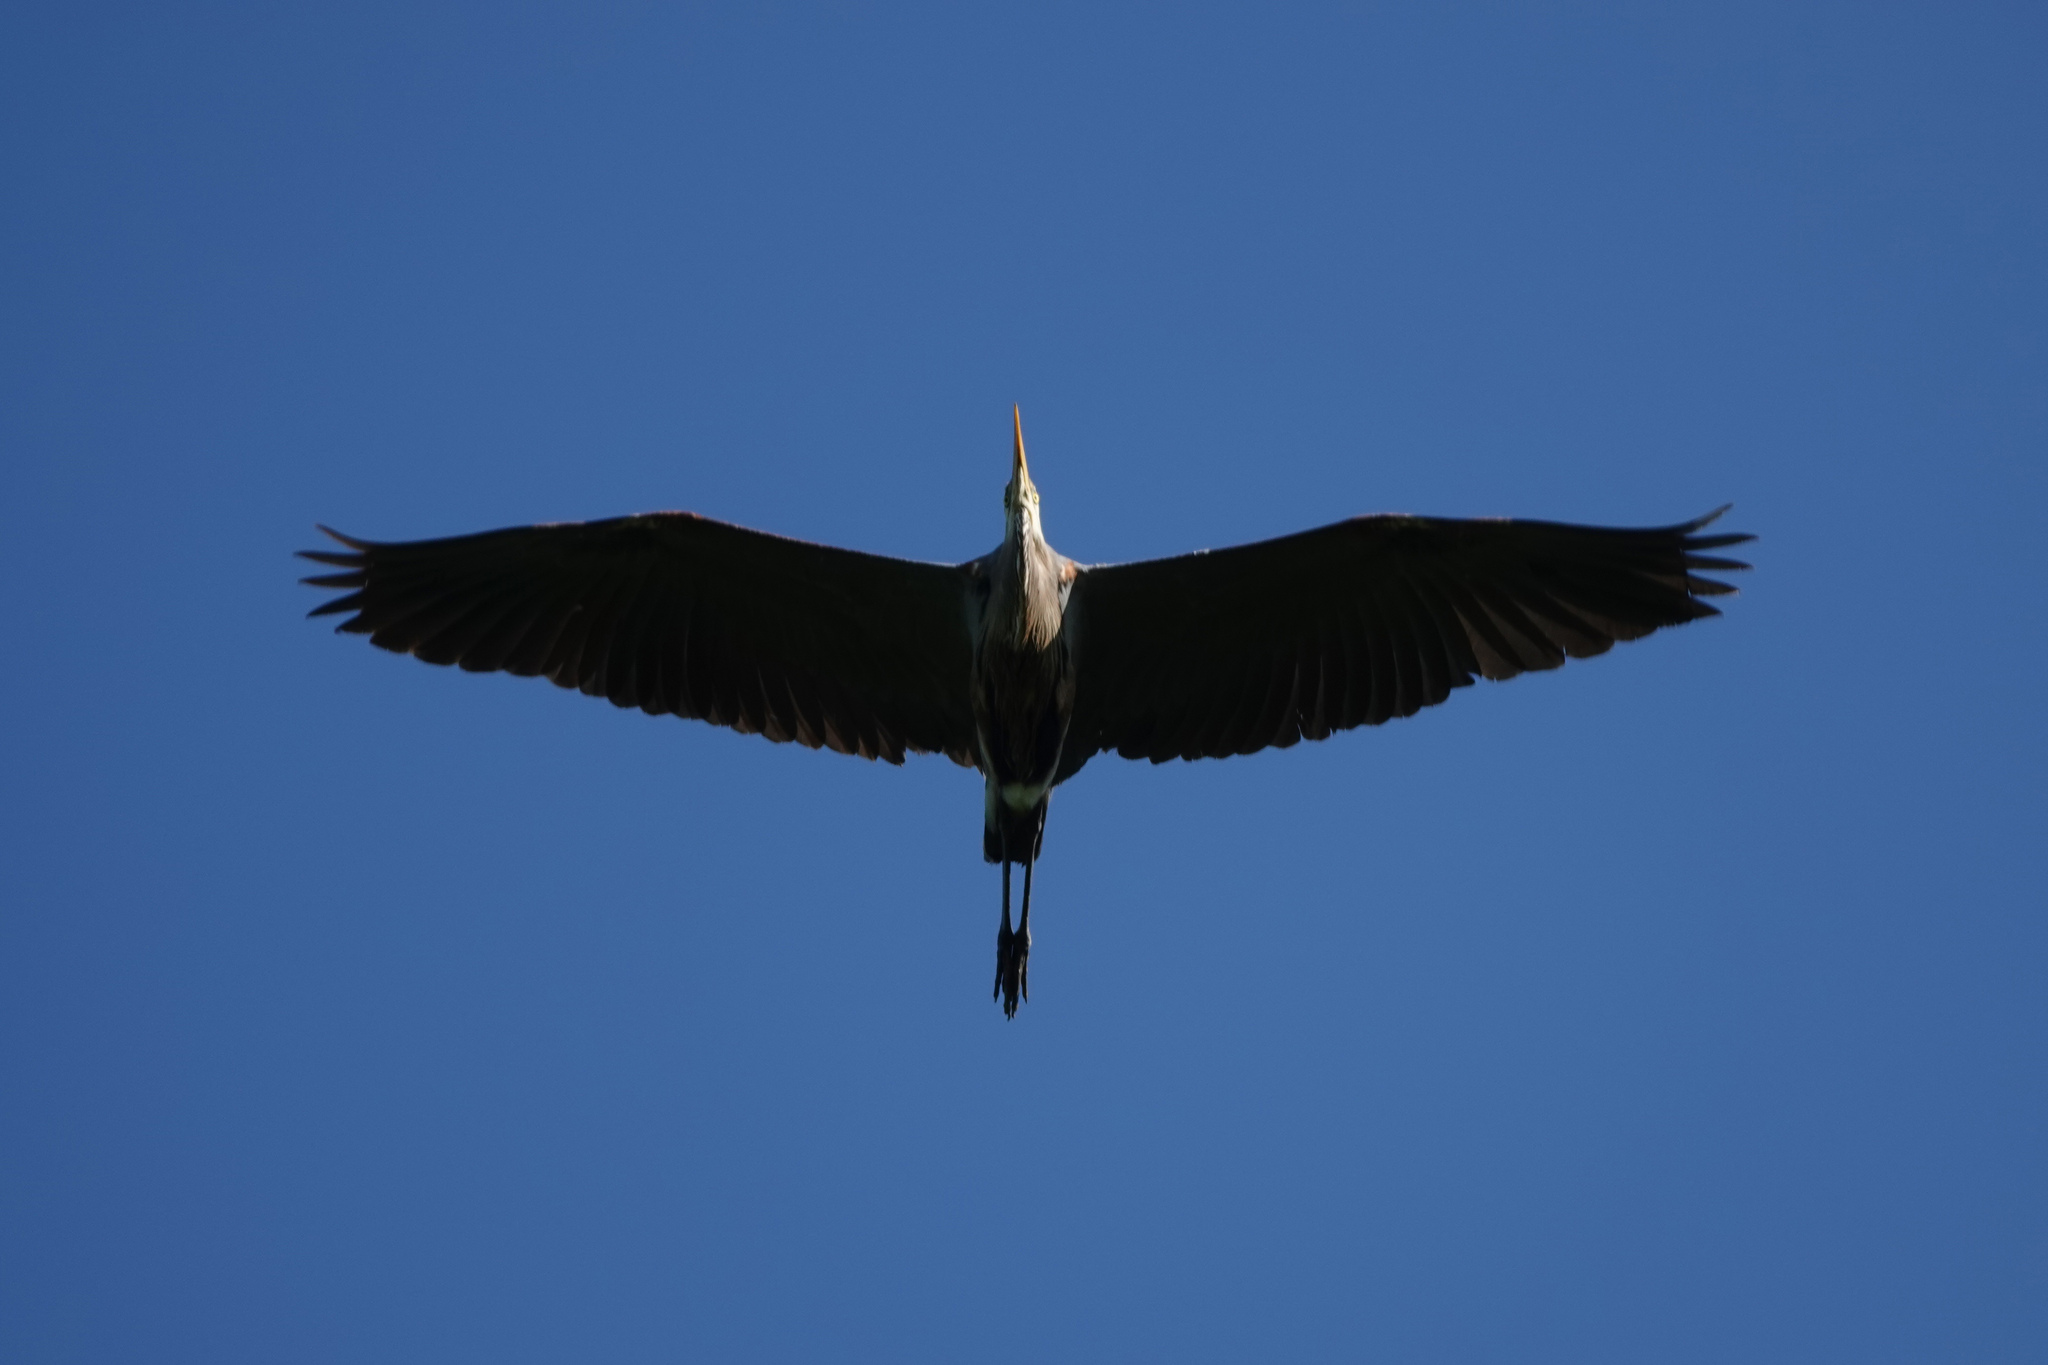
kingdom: Animalia
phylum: Chordata
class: Aves
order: Pelecaniformes
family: Ardeidae
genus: Ardea
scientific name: Ardea herodias
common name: Great blue heron
